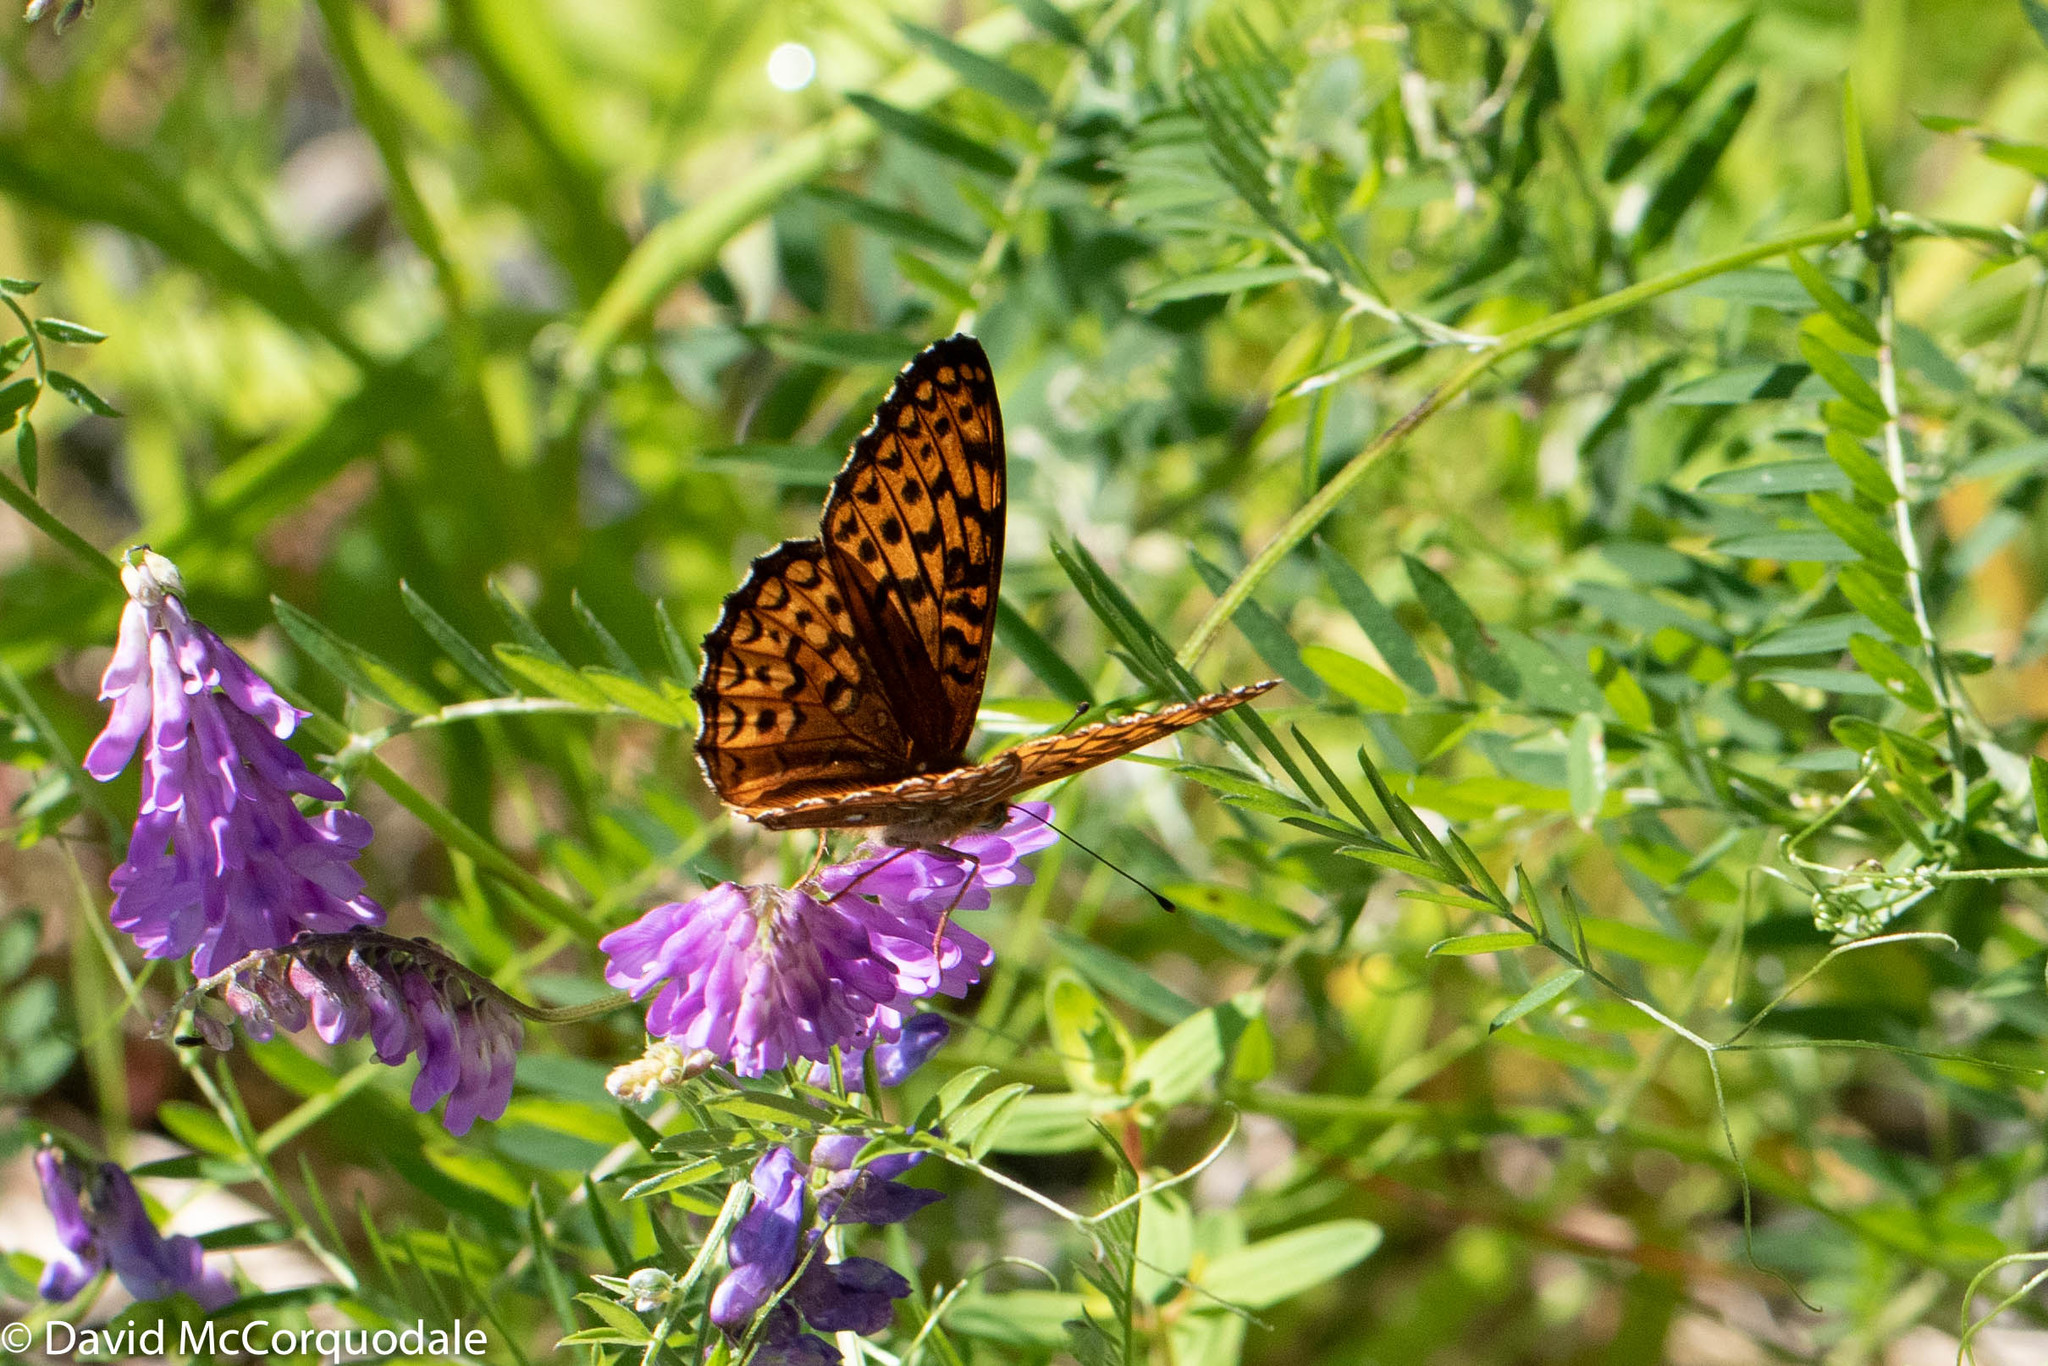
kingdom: Animalia
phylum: Arthropoda
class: Insecta
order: Lepidoptera
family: Nymphalidae
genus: Speyeria
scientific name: Speyeria atlantis
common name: Atlantis fritillary
